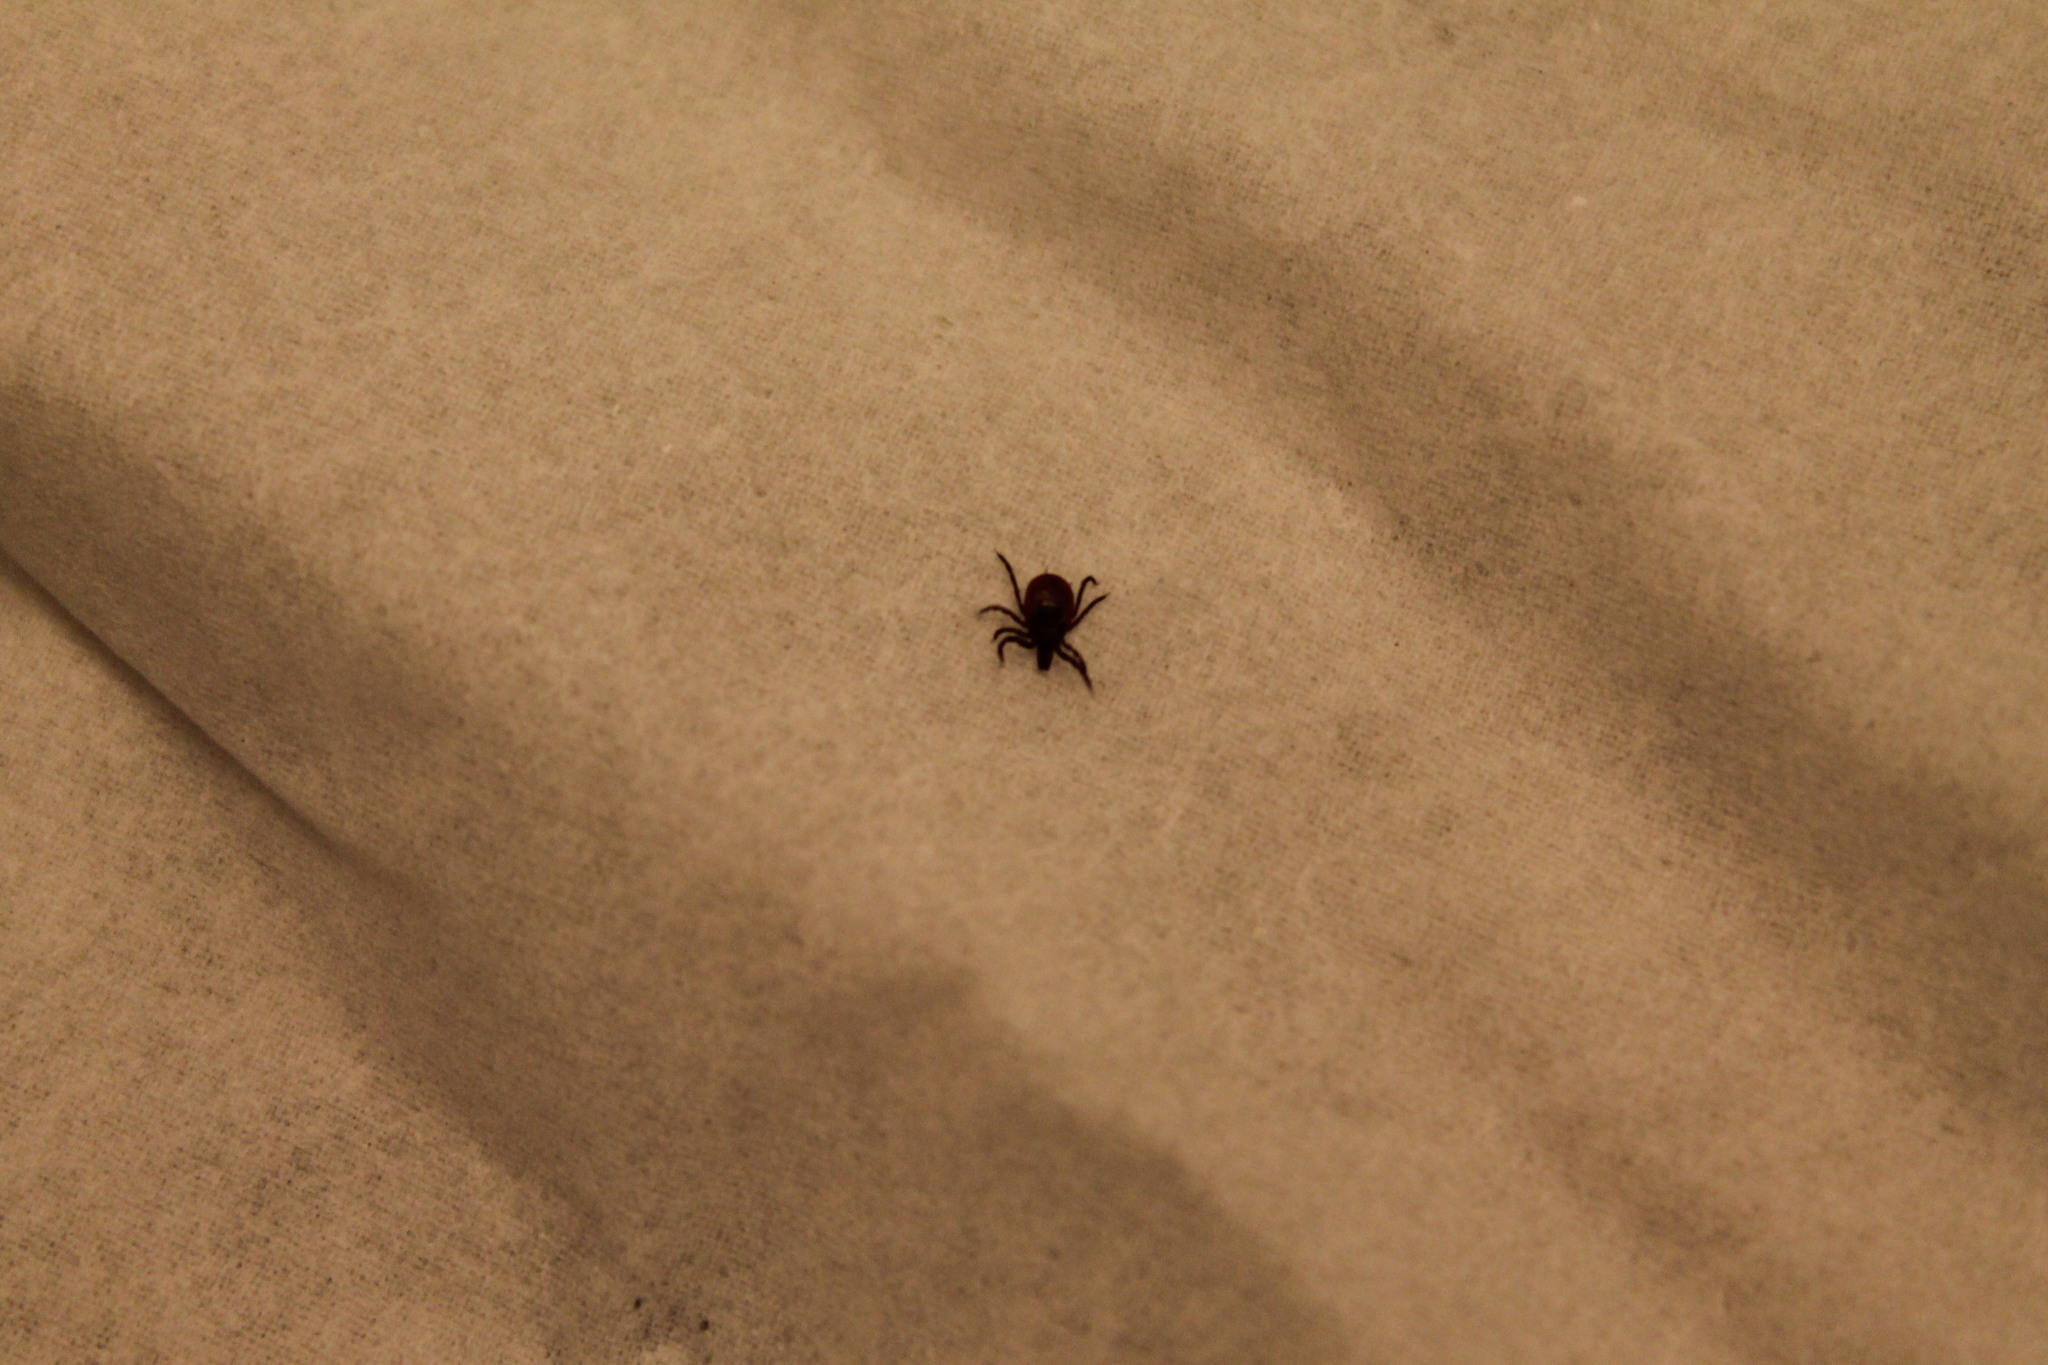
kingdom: Animalia
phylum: Arthropoda
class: Arachnida
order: Ixodida
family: Ixodidae
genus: Ixodes
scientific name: Ixodes scapularis
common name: Black legged tick
